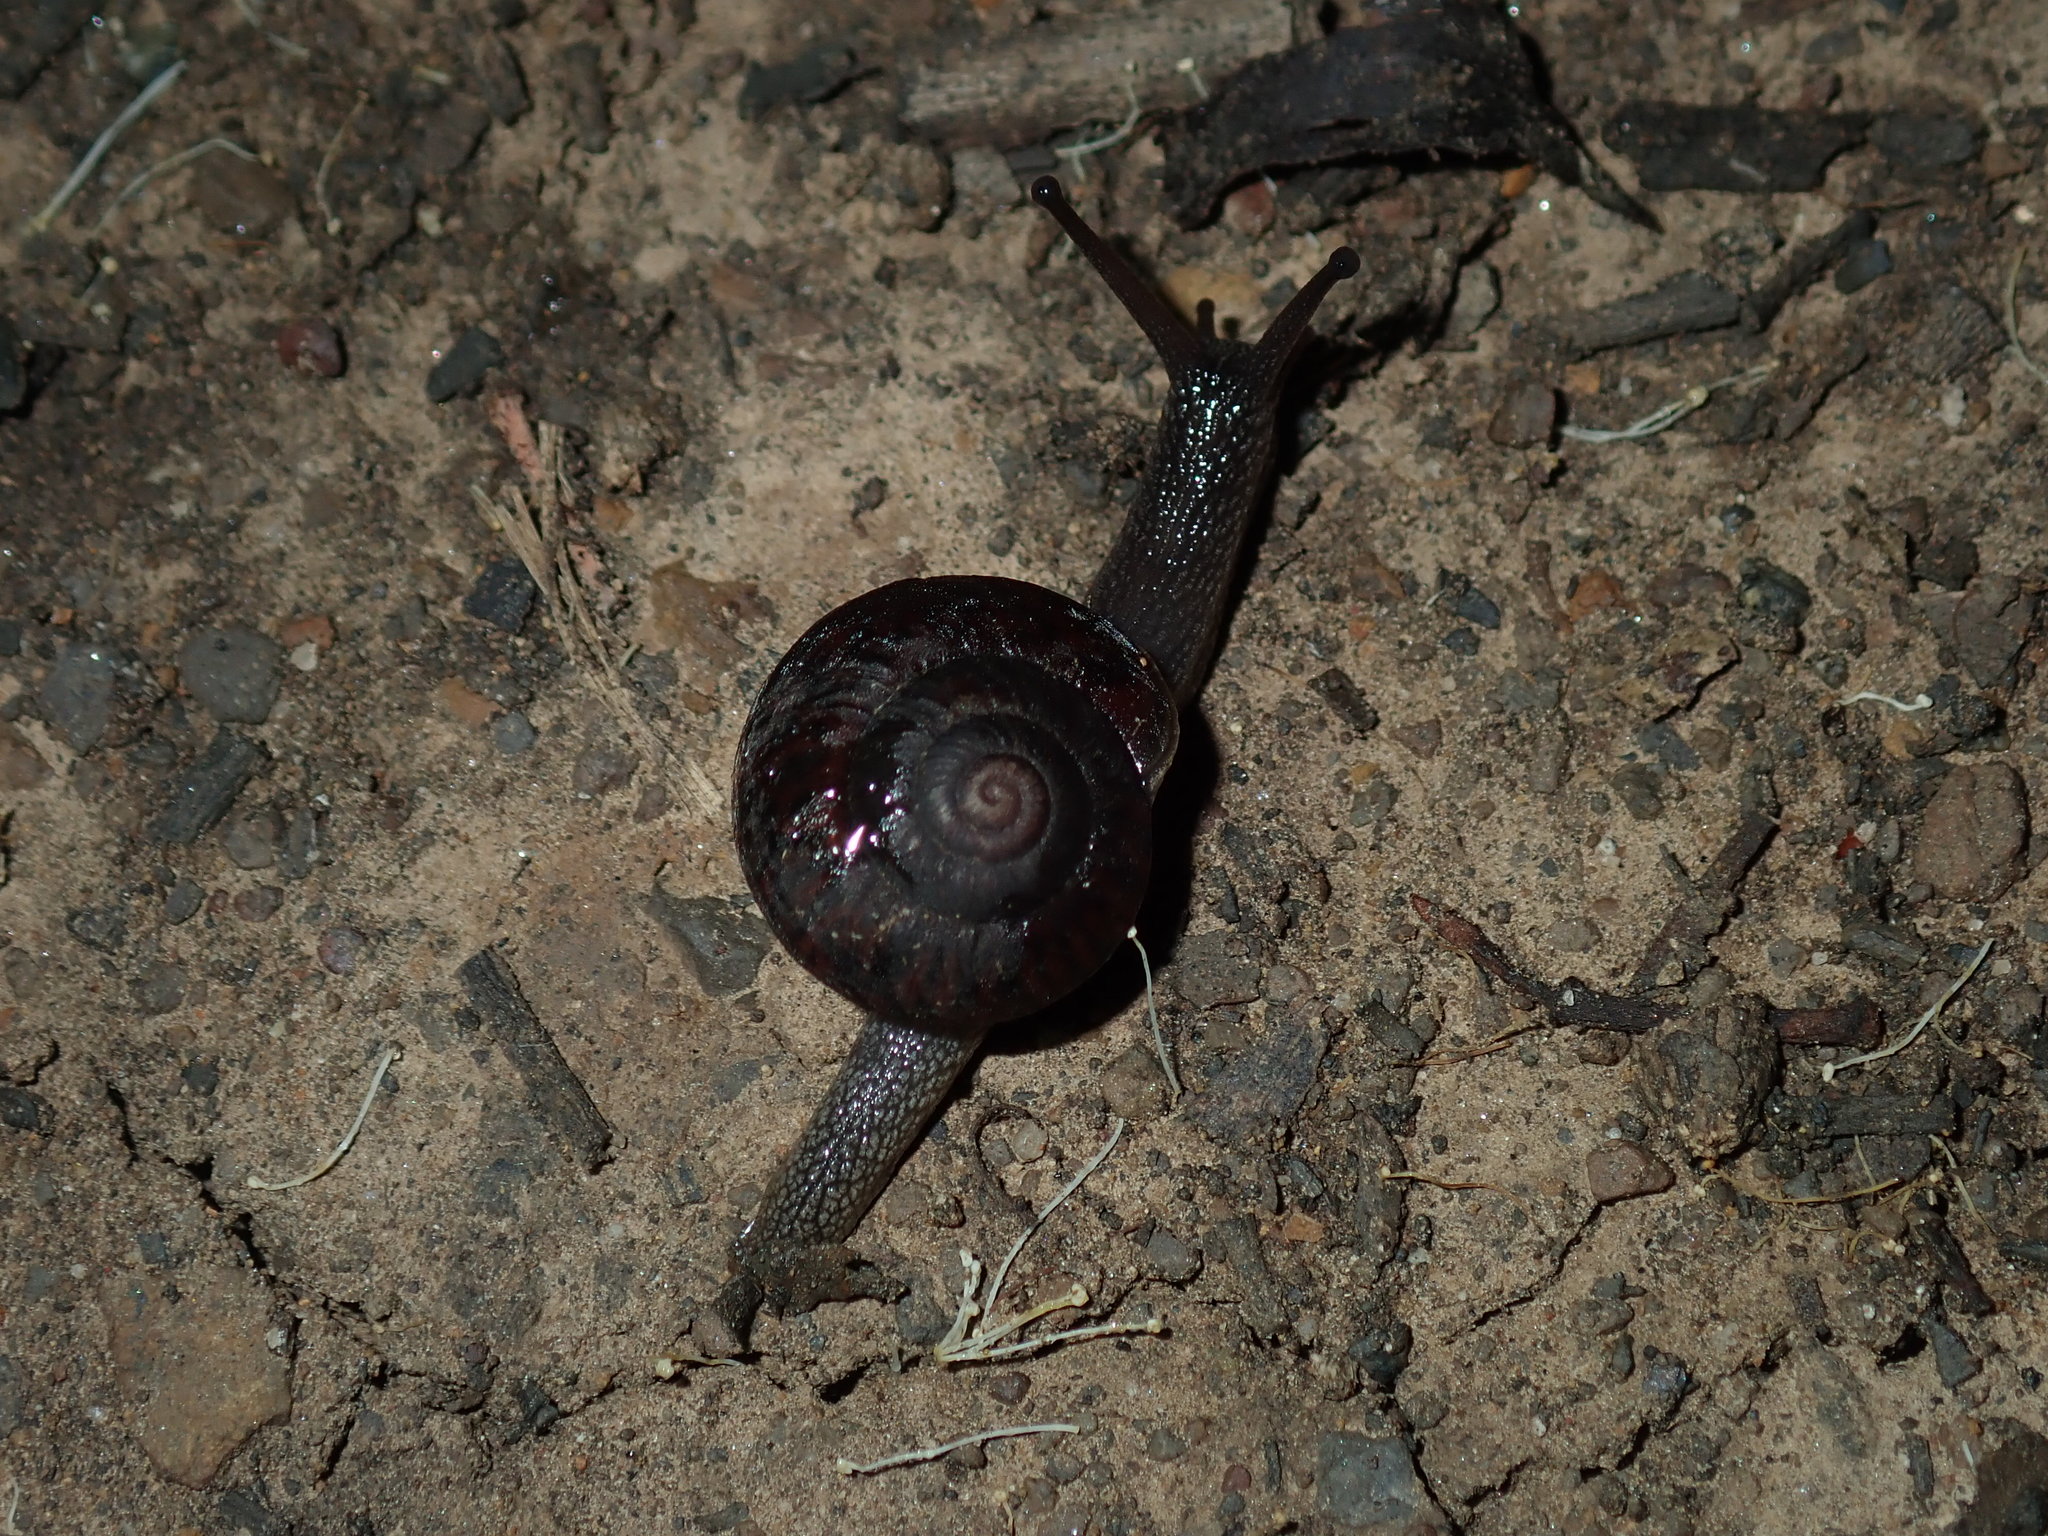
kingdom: Animalia
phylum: Mollusca
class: Gastropoda
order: Stylommatophora
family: Camaenidae
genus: Sauroconcha
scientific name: Sauroconcha sheai
